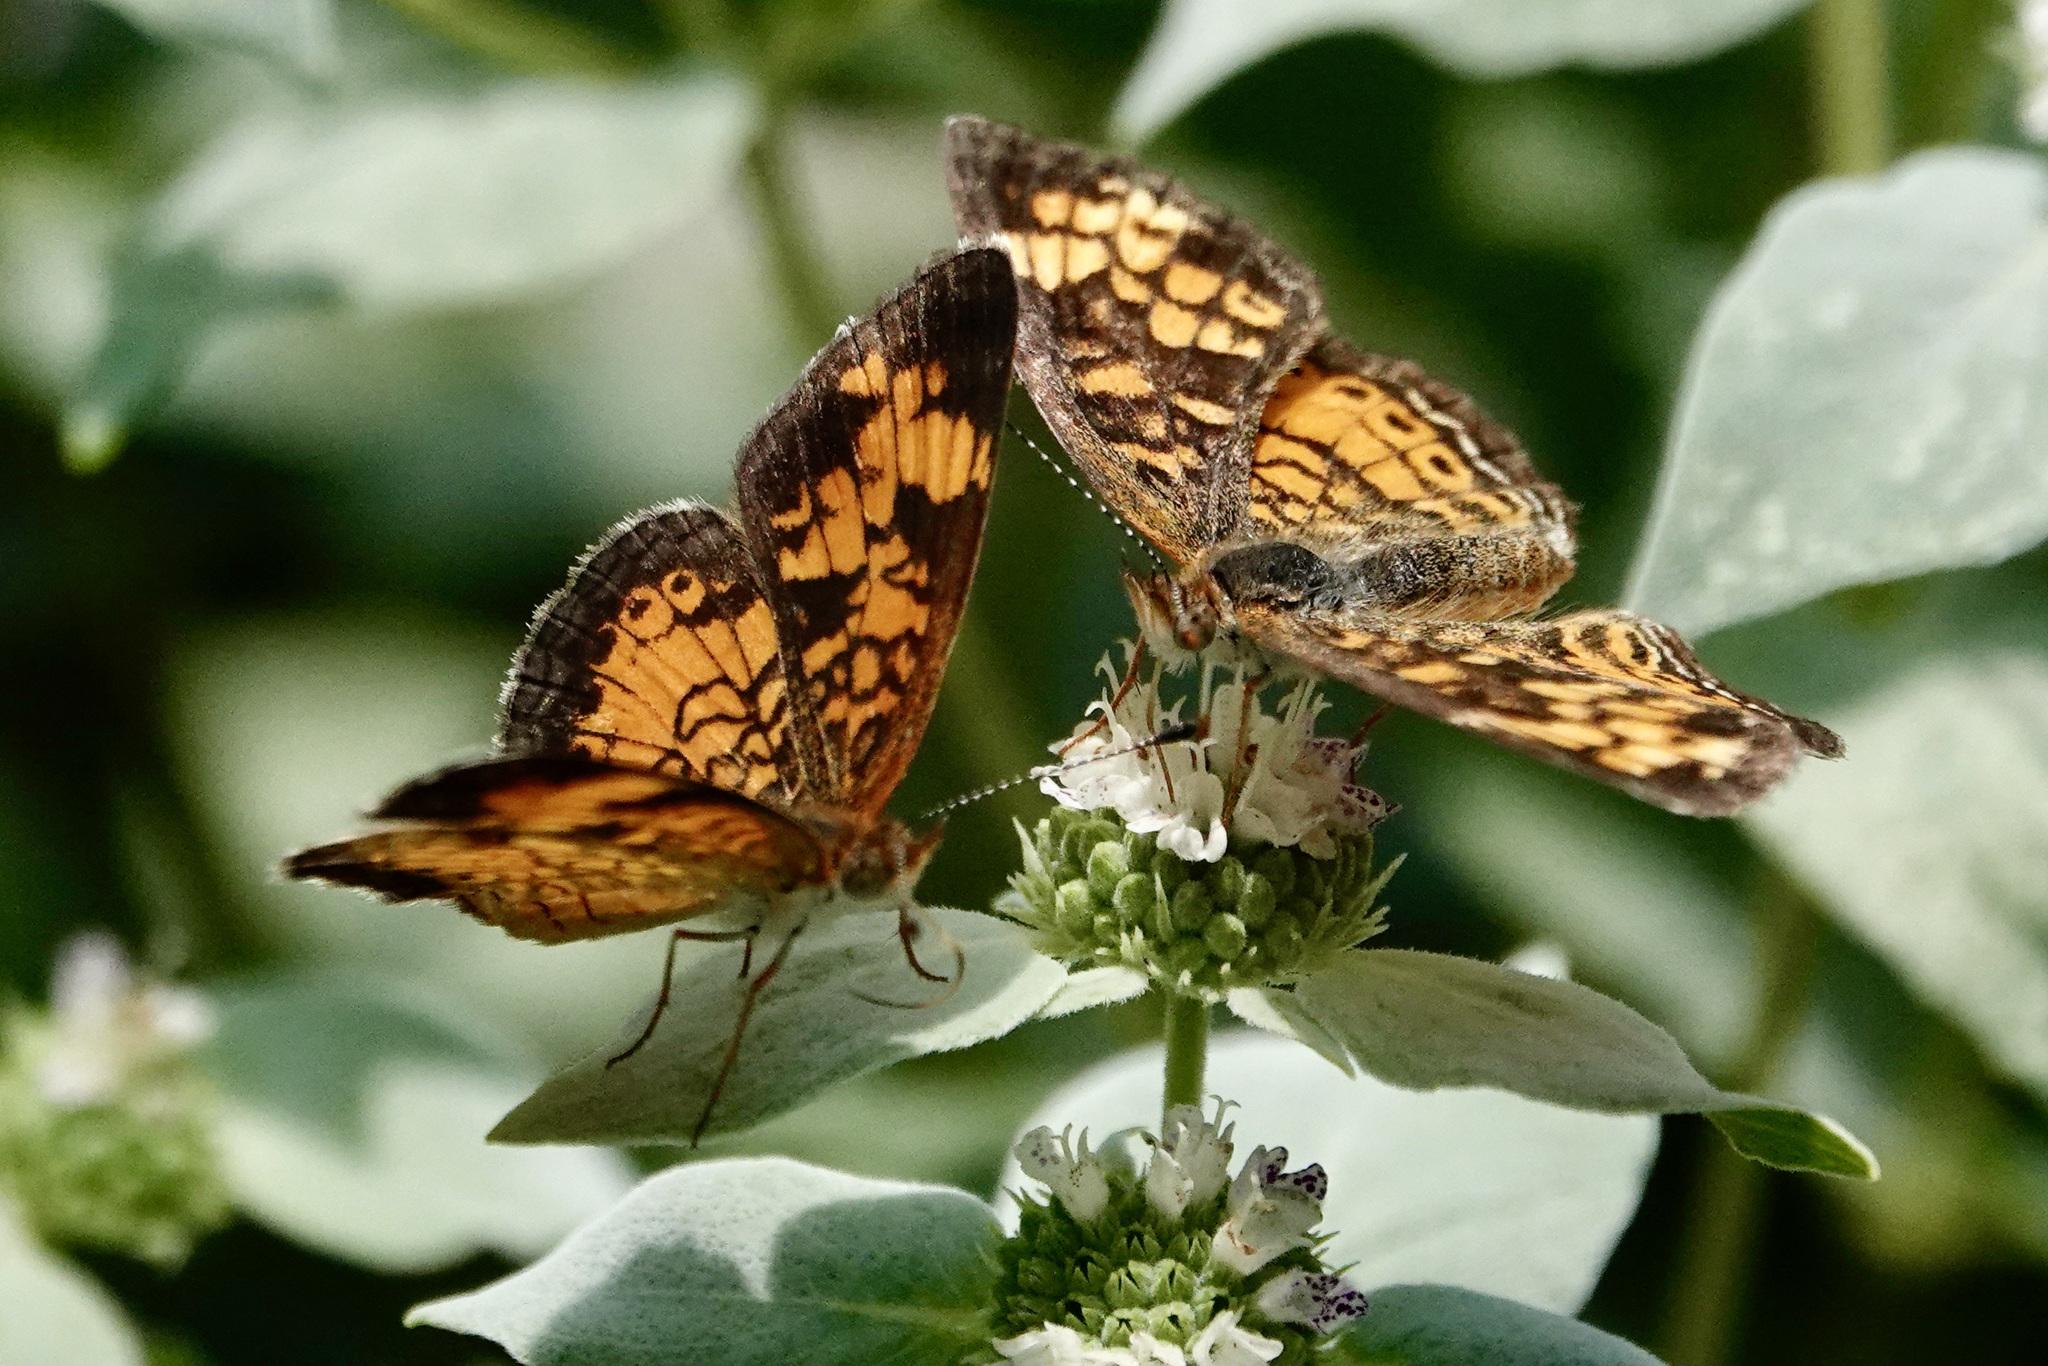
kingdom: Animalia
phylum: Arthropoda
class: Insecta
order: Lepidoptera
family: Nymphalidae
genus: Phyciodes
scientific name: Phyciodes tharos
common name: Pearl crescent
